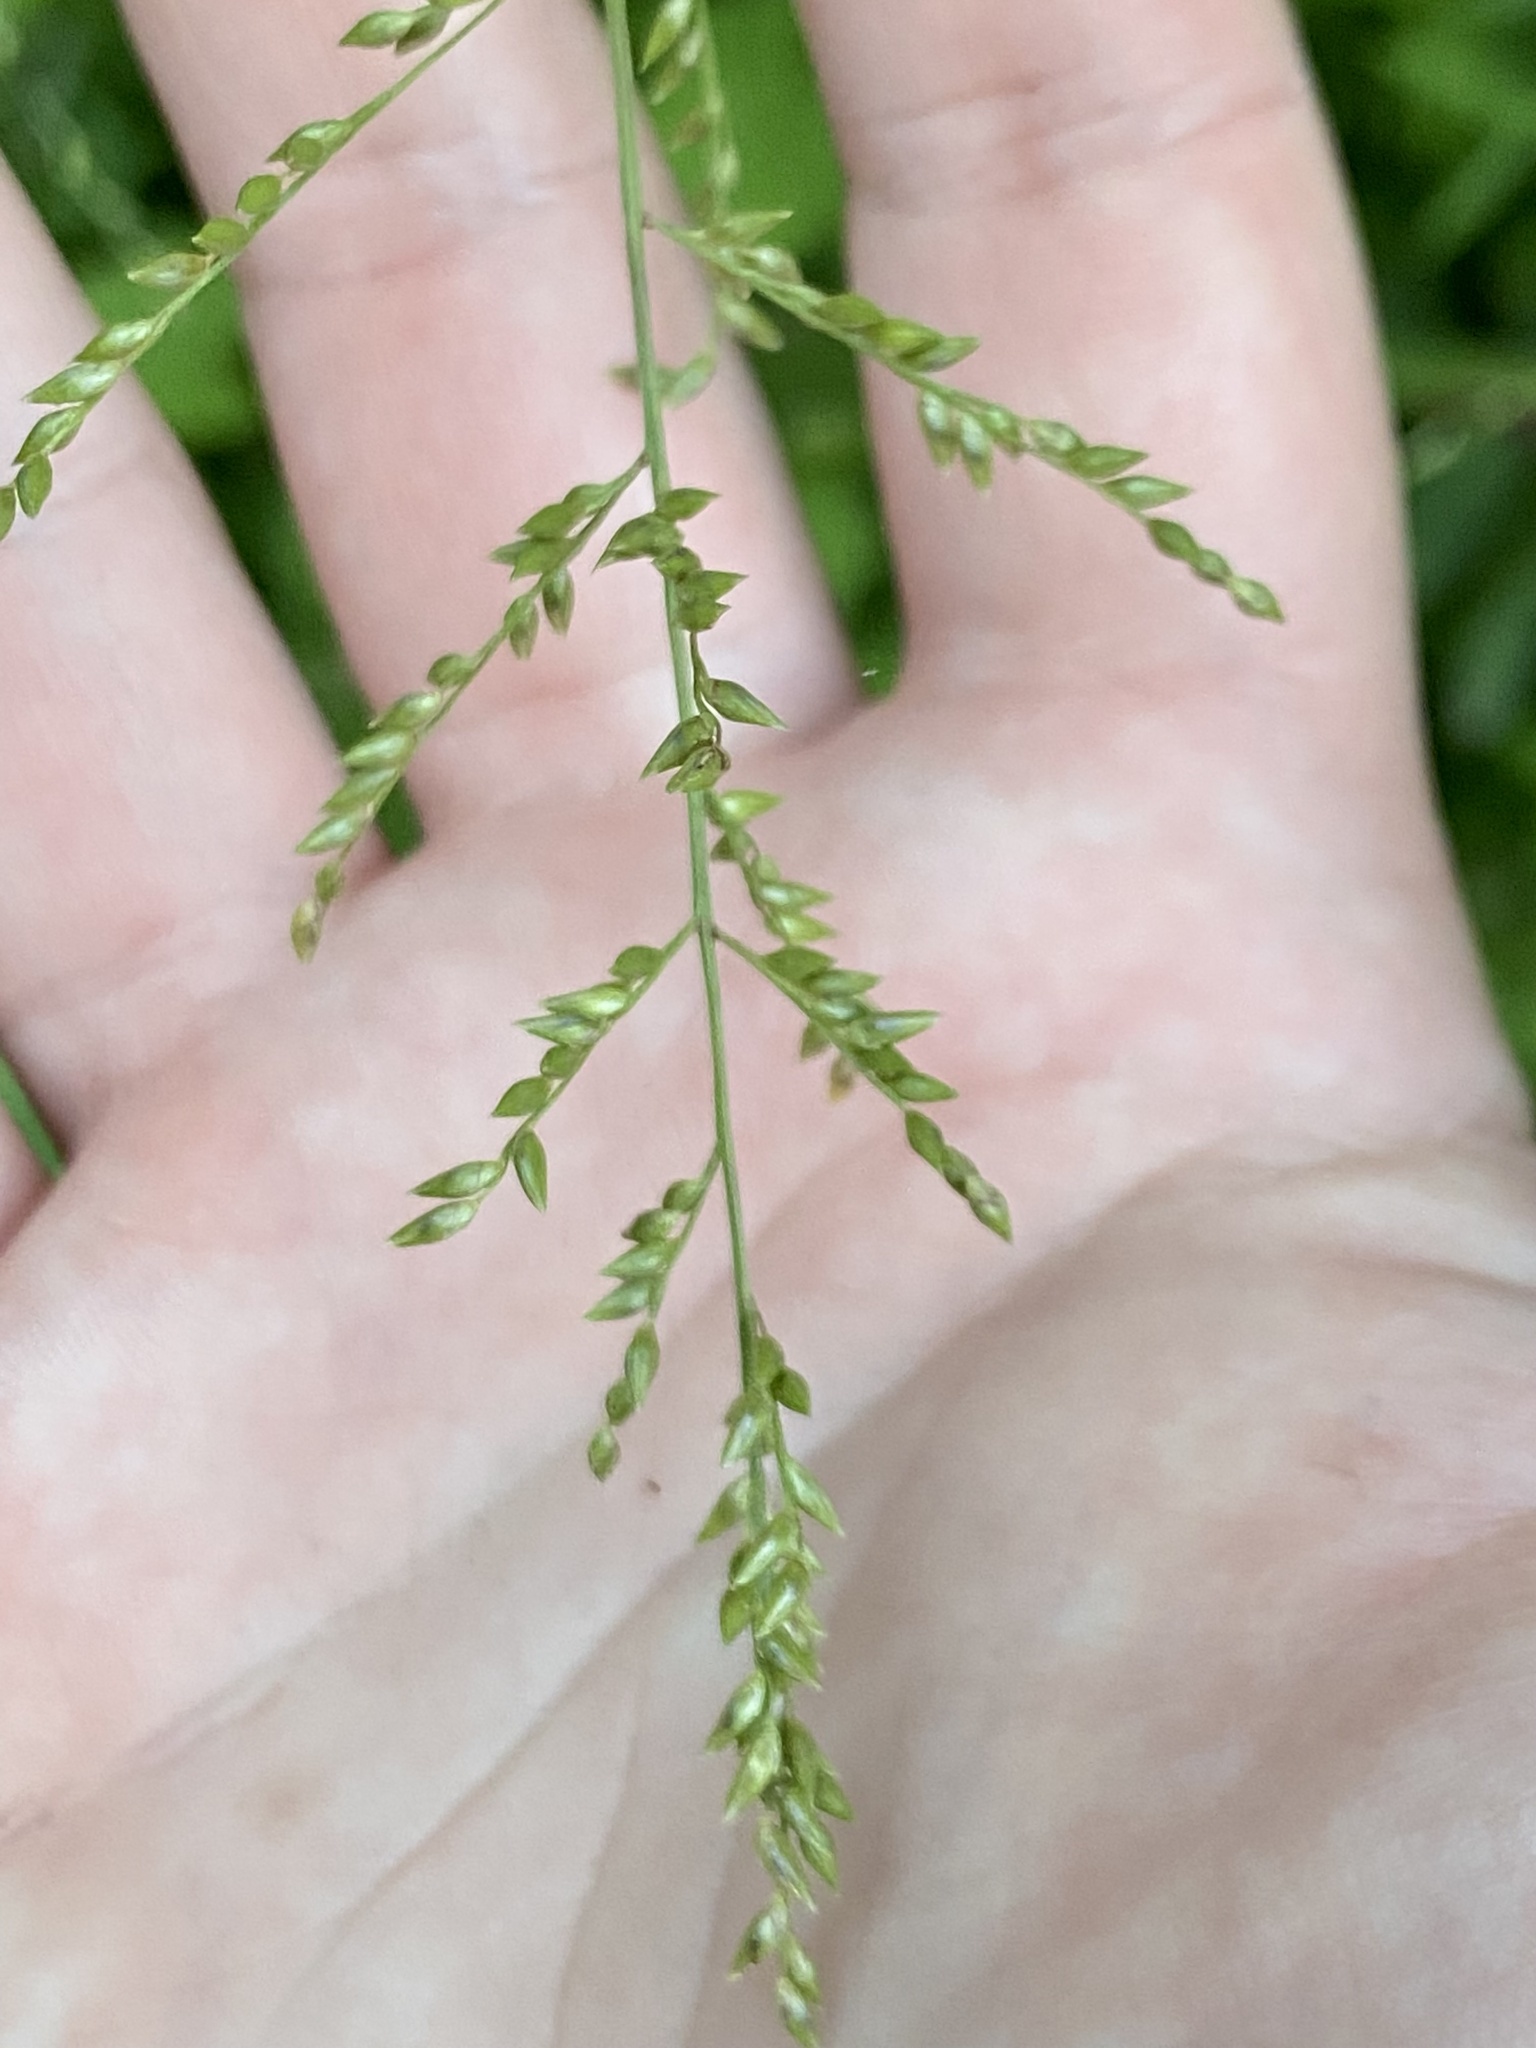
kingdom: Plantae
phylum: Tracheophyta
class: Liliopsida
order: Poales
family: Poaceae
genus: Coleataenia
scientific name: Coleataenia anceps
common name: Beaked panic grass
